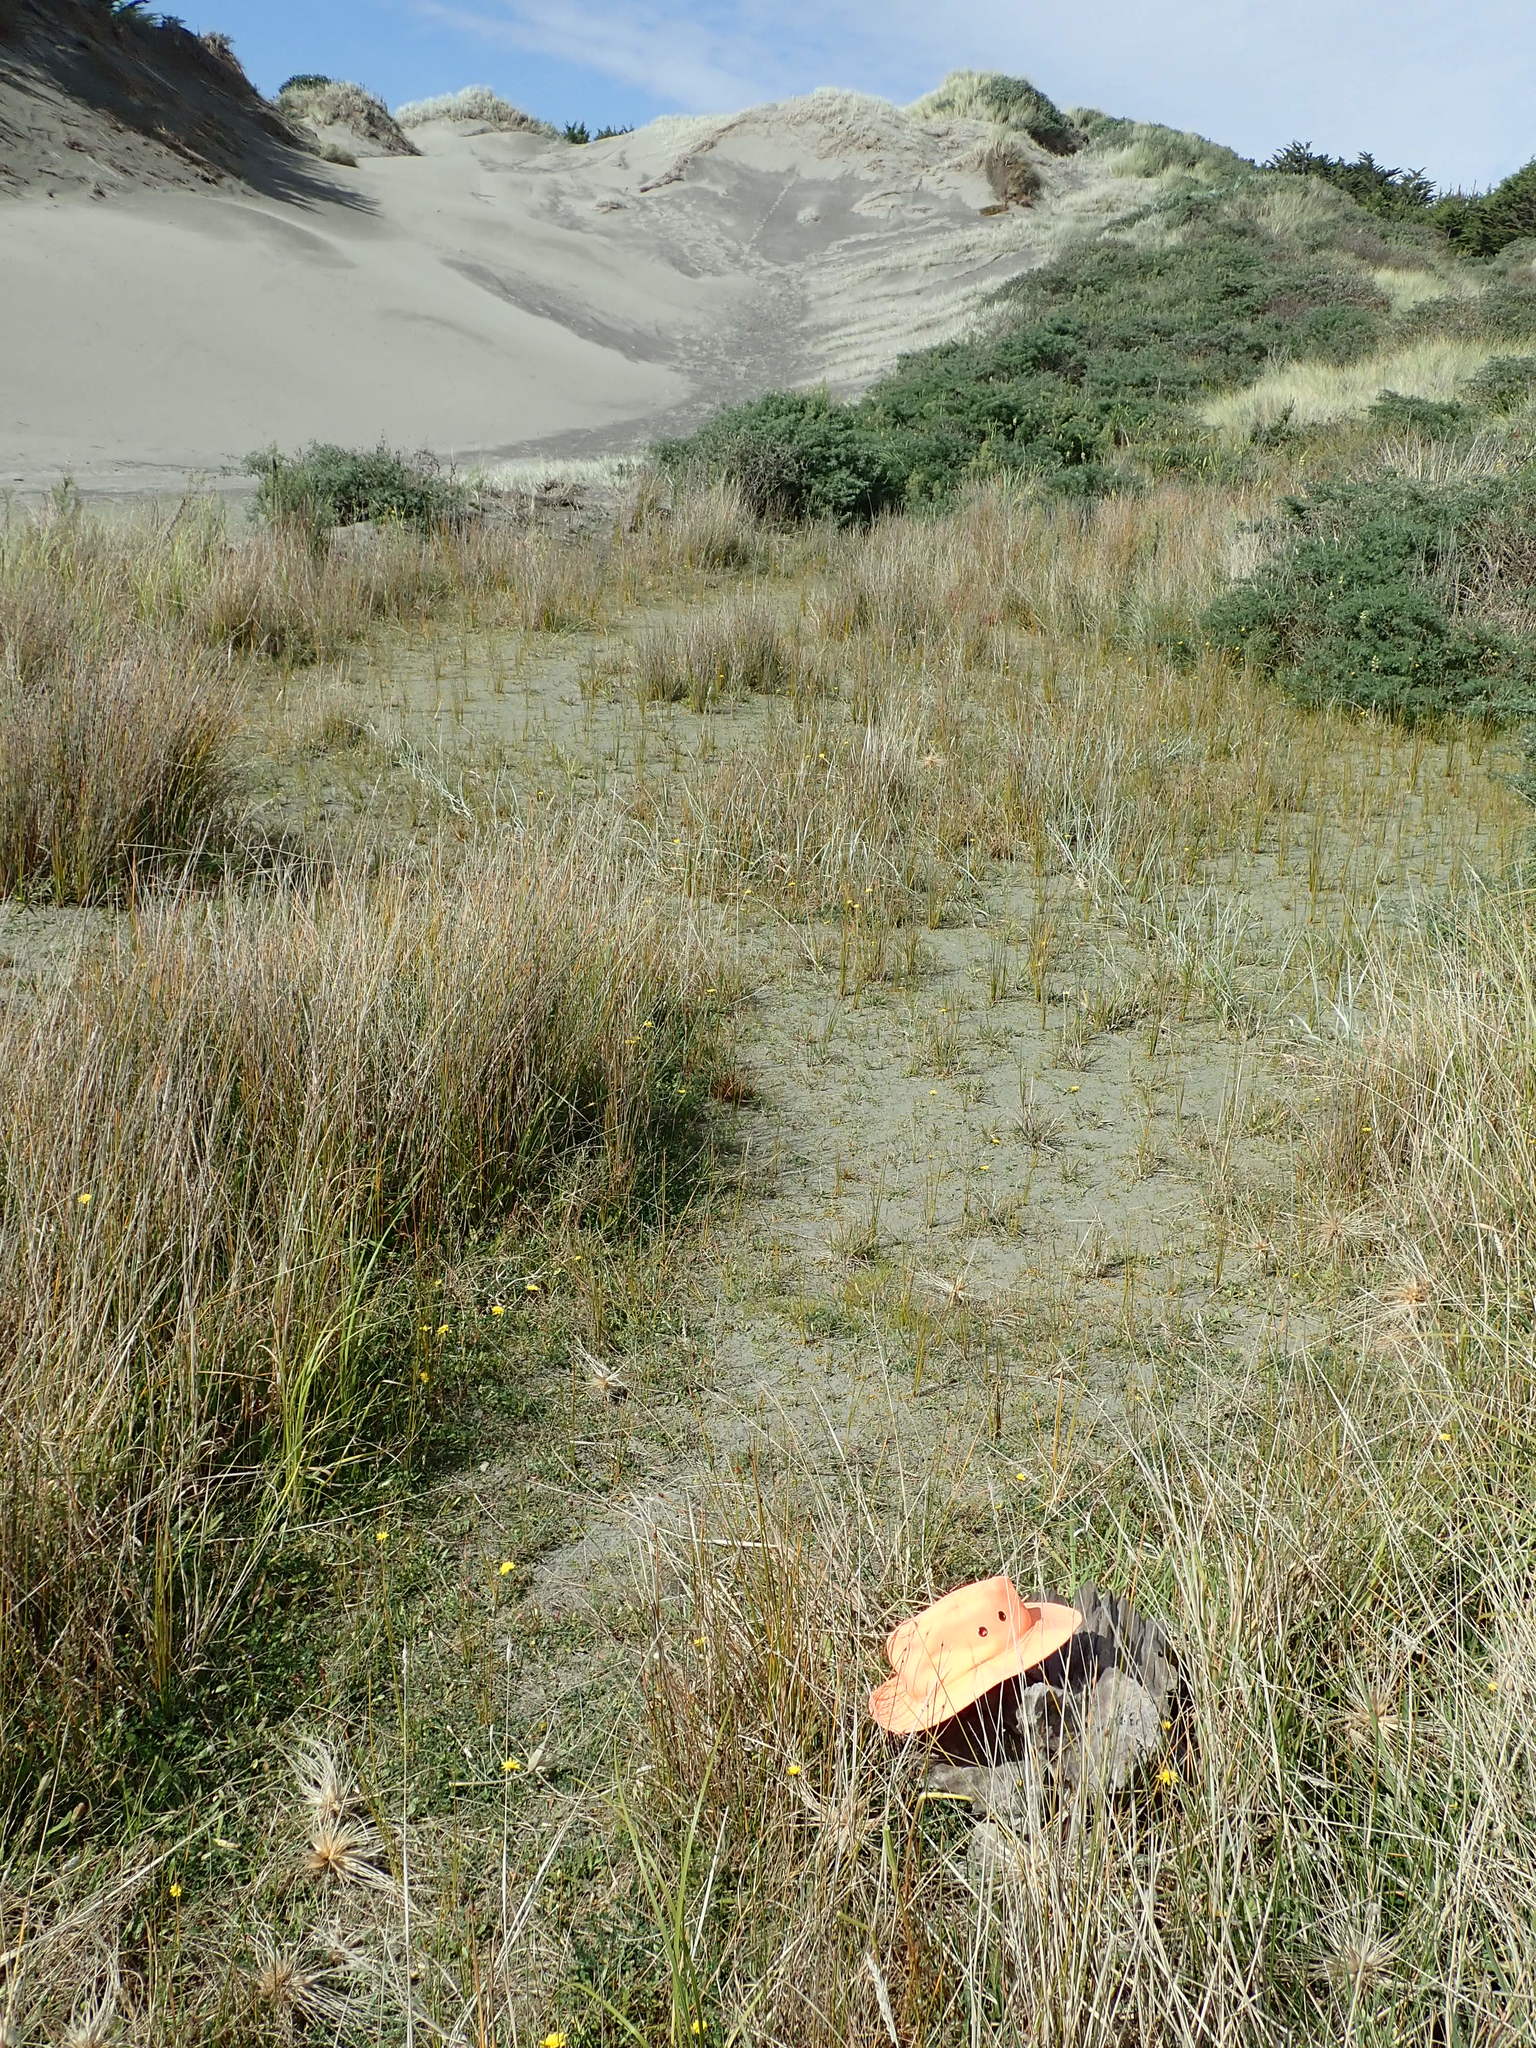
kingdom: Animalia
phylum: Mollusca
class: Gastropoda
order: Stylommatophora
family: Oxychilidae
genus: Oxychilus
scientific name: Oxychilus
